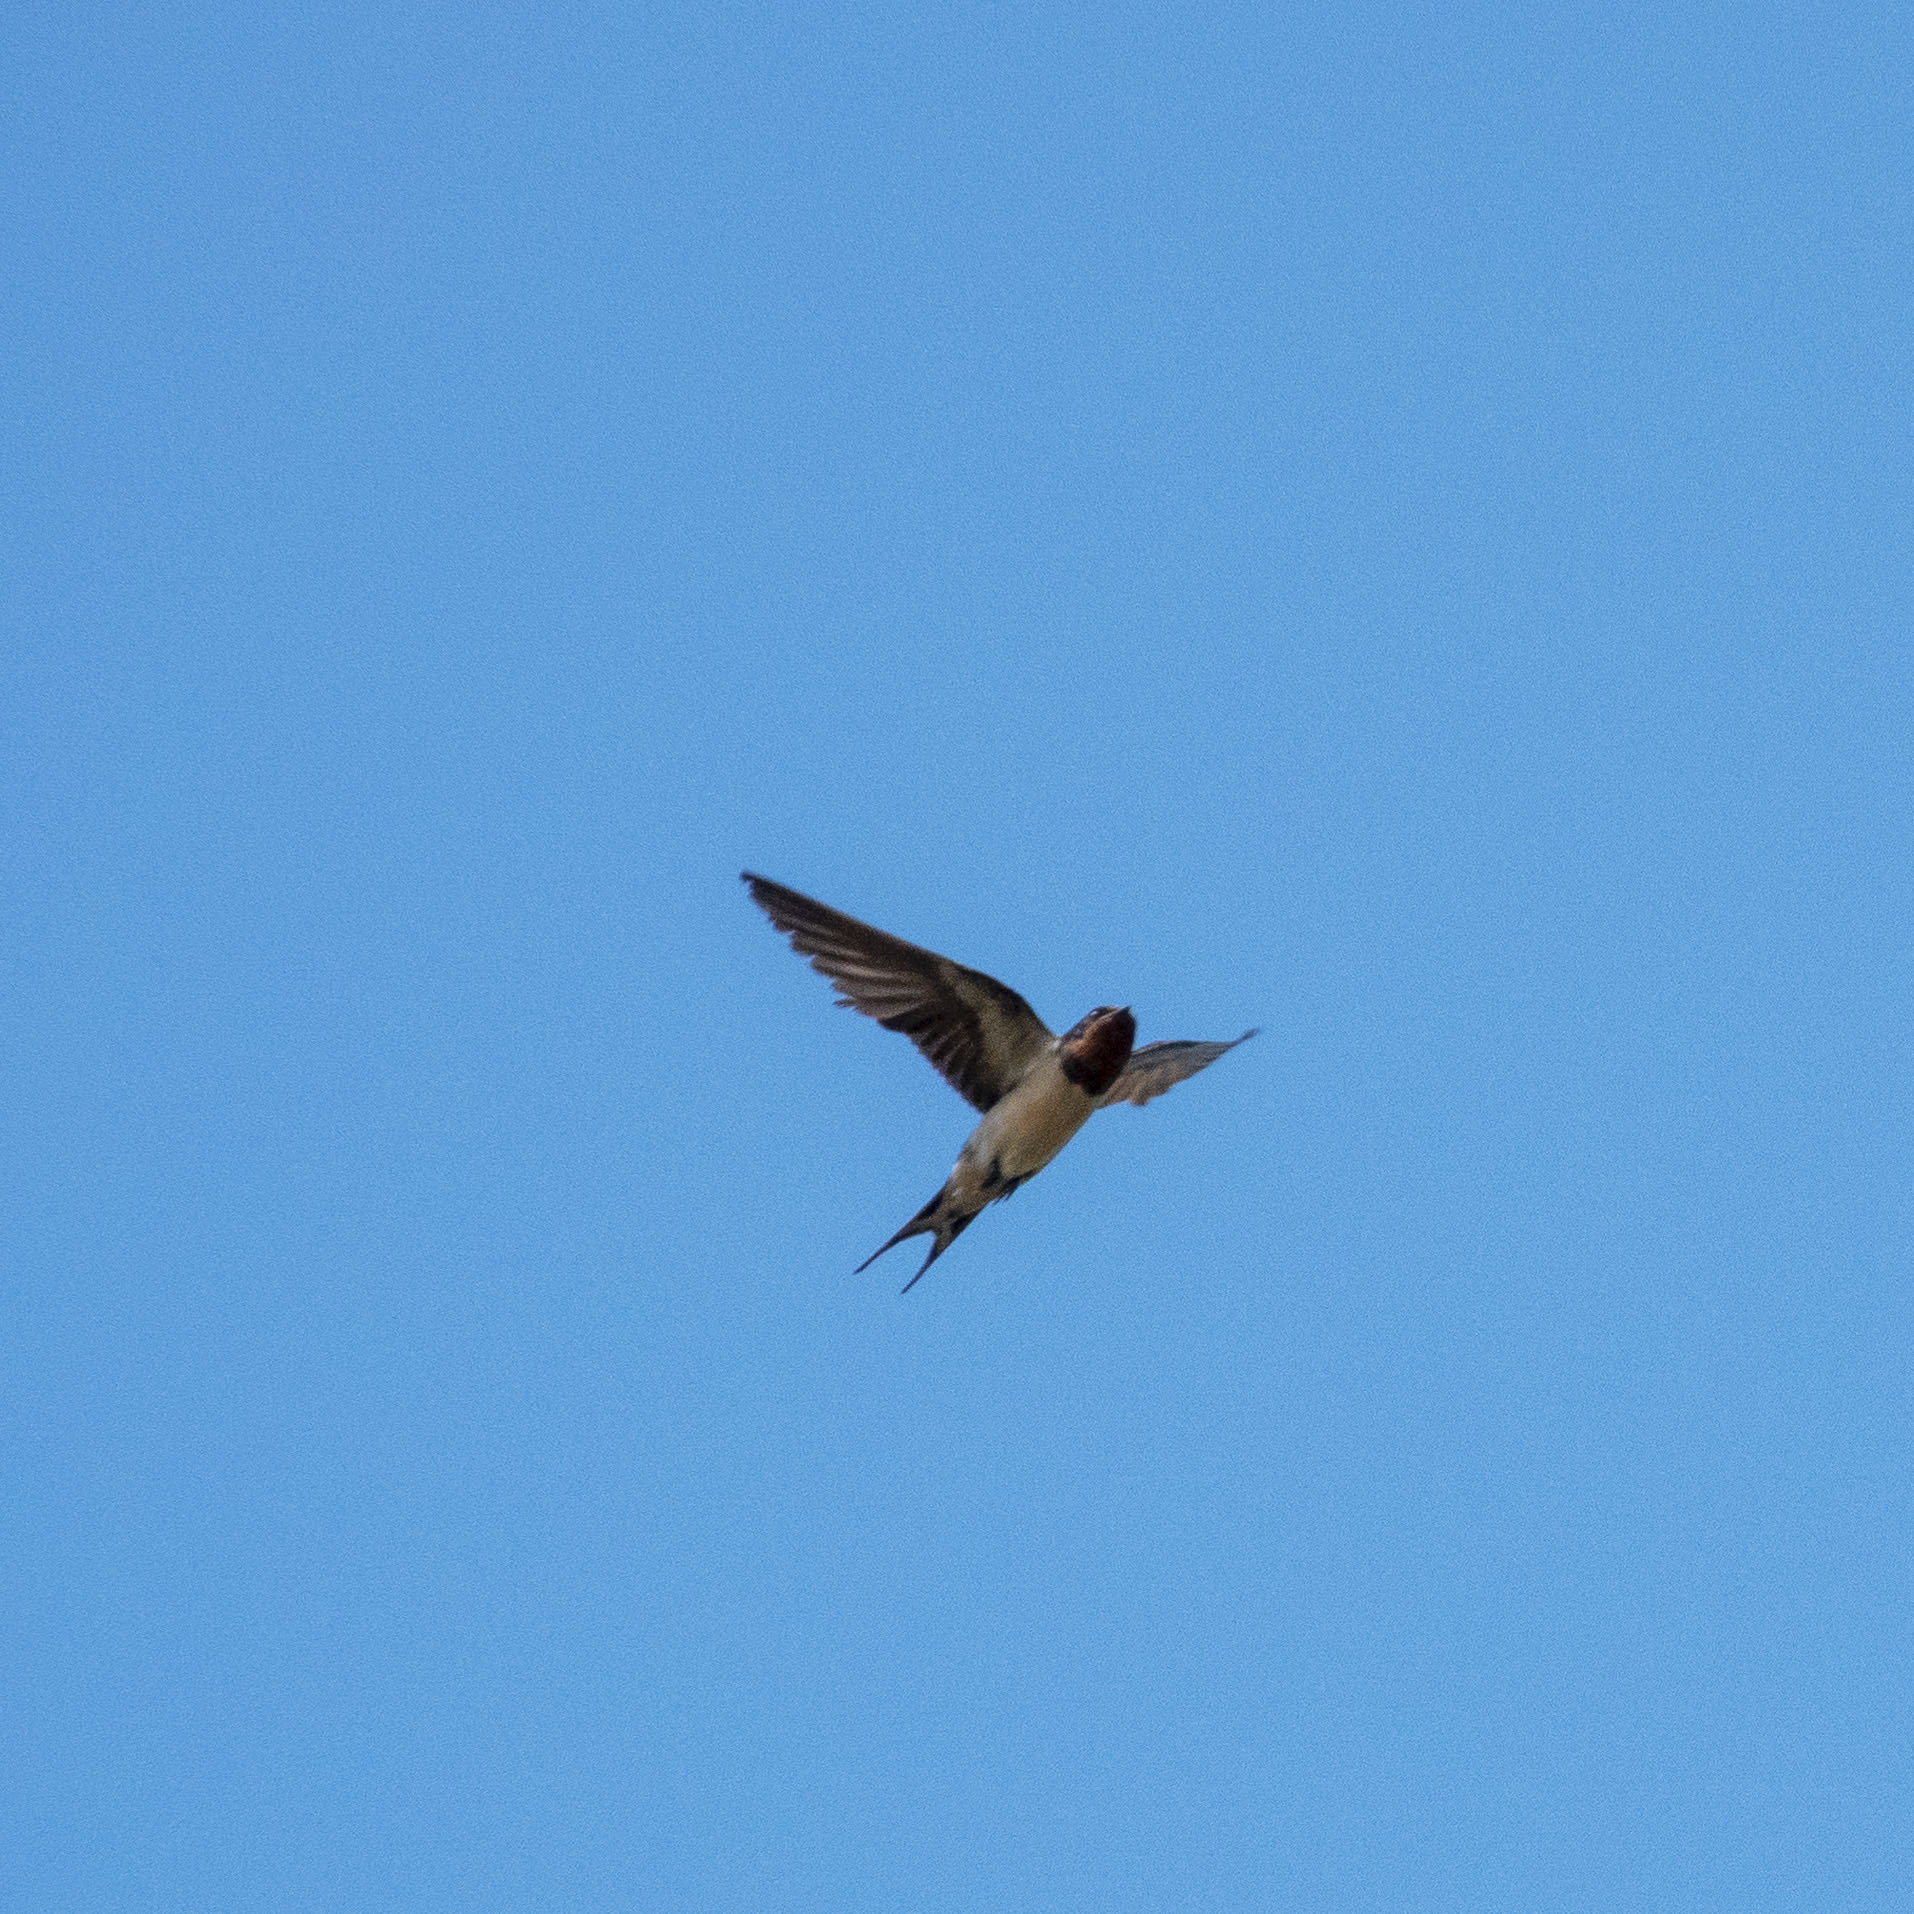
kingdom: Animalia
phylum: Chordata
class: Aves
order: Passeriformes
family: Hirundinidae
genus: Hirundo
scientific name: Hirundo rustica
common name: Barn swallow
